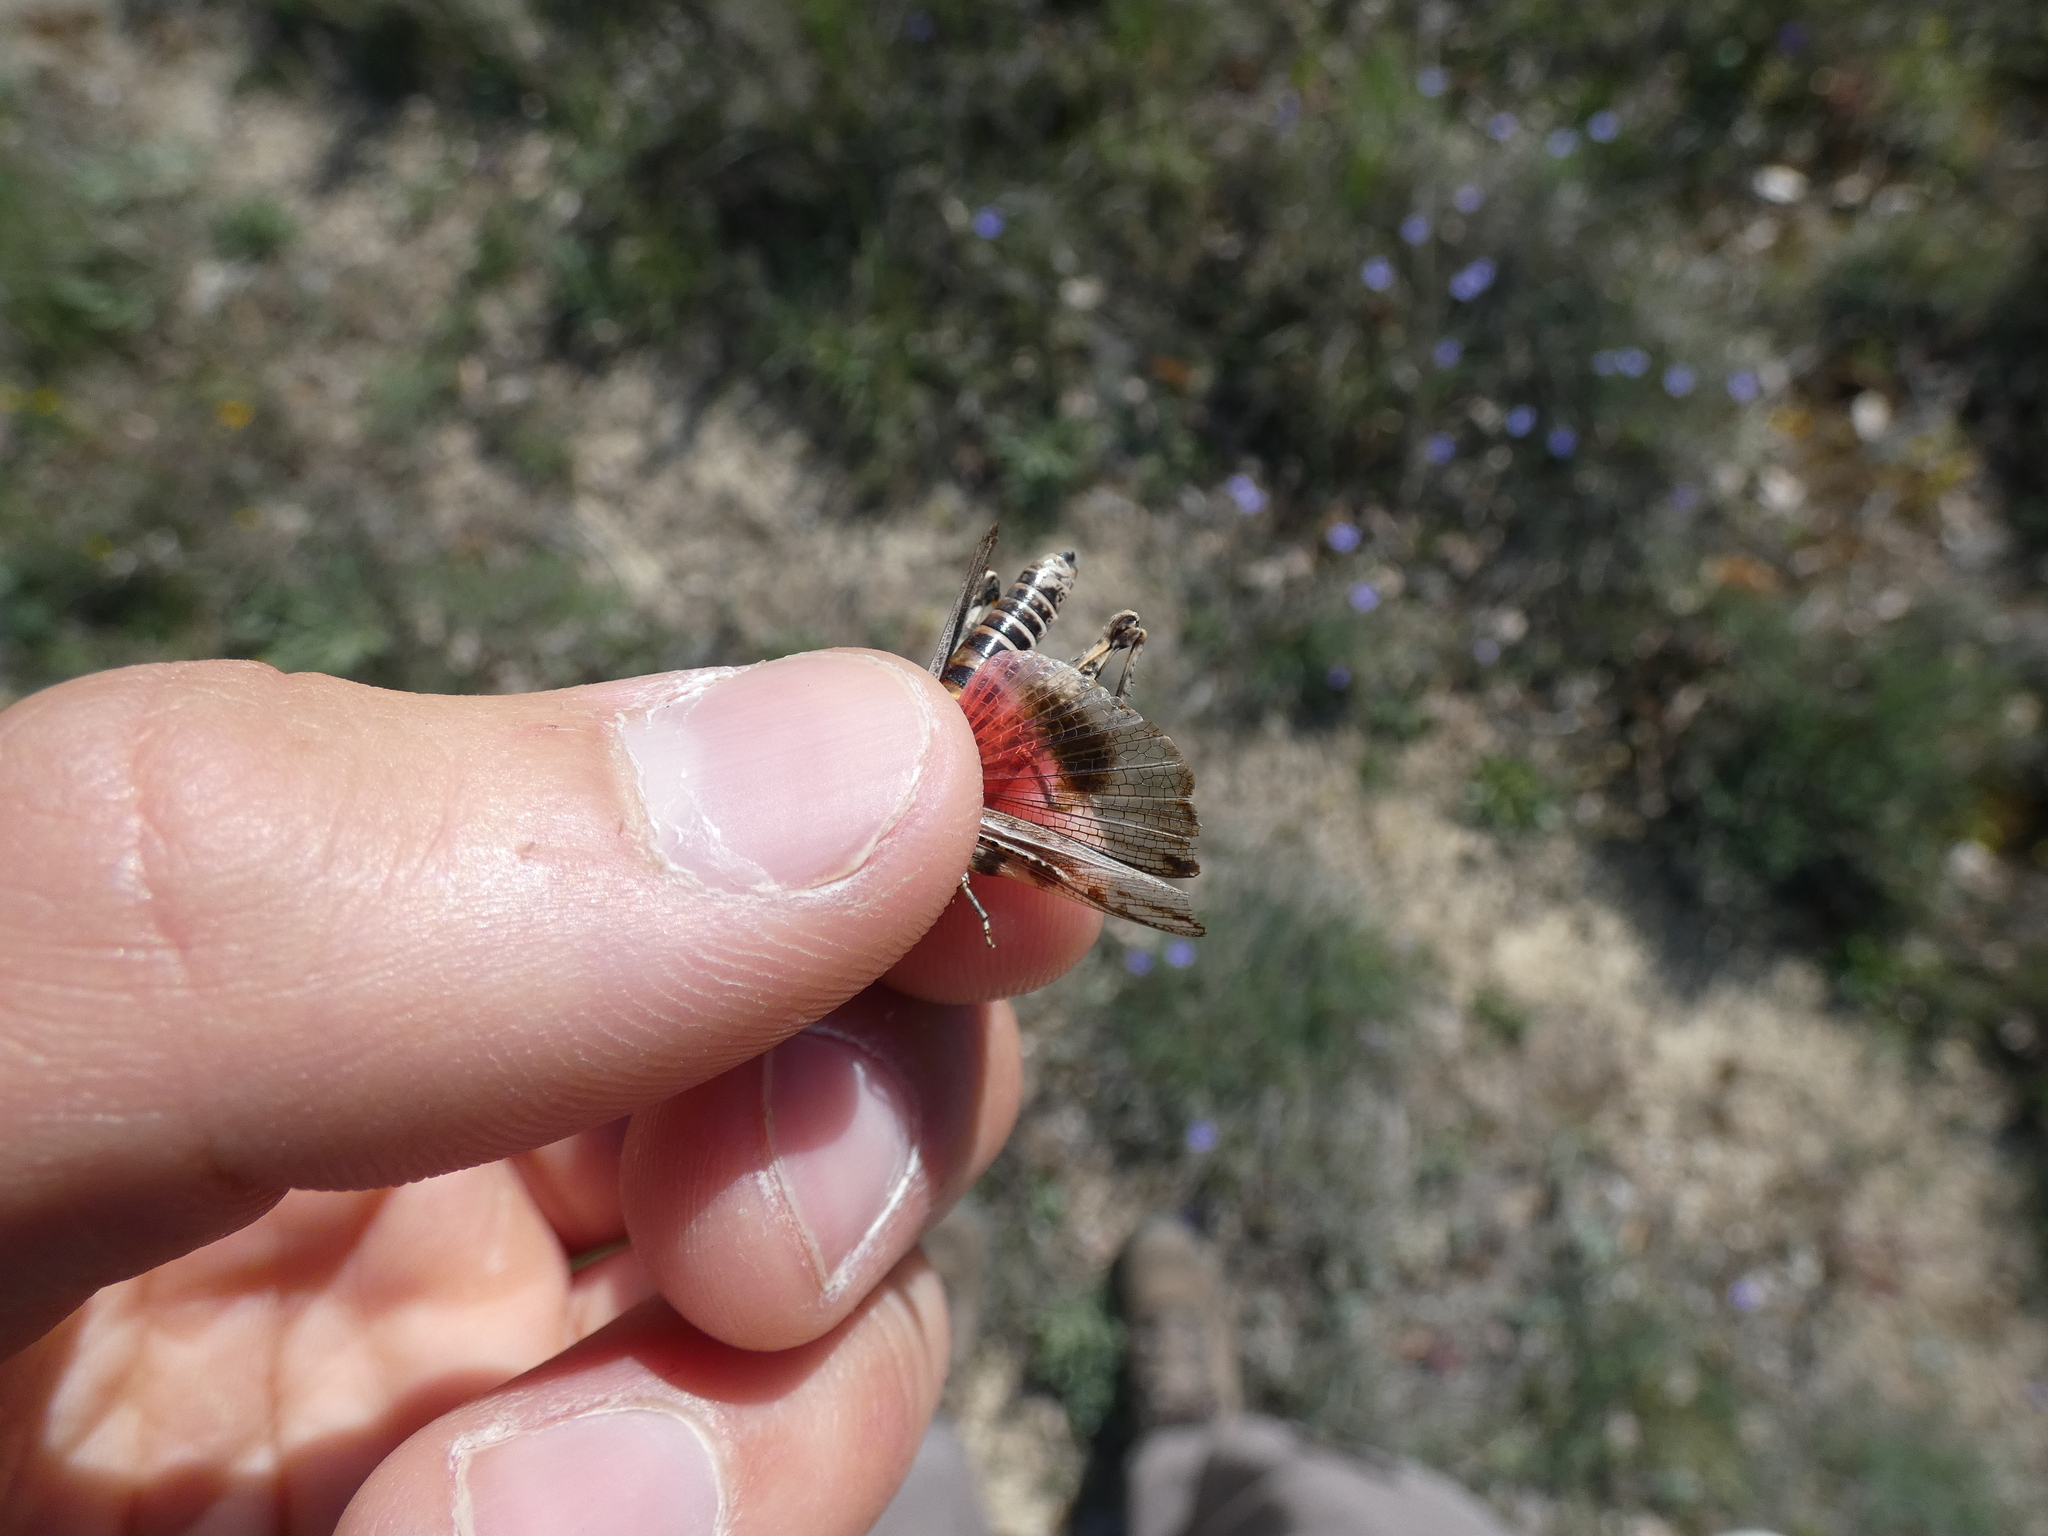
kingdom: Animalia
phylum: Arthropoda
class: Insecta
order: Orthoptera
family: Acrididae
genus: Acrotylus
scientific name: Acrotylus fischeri
